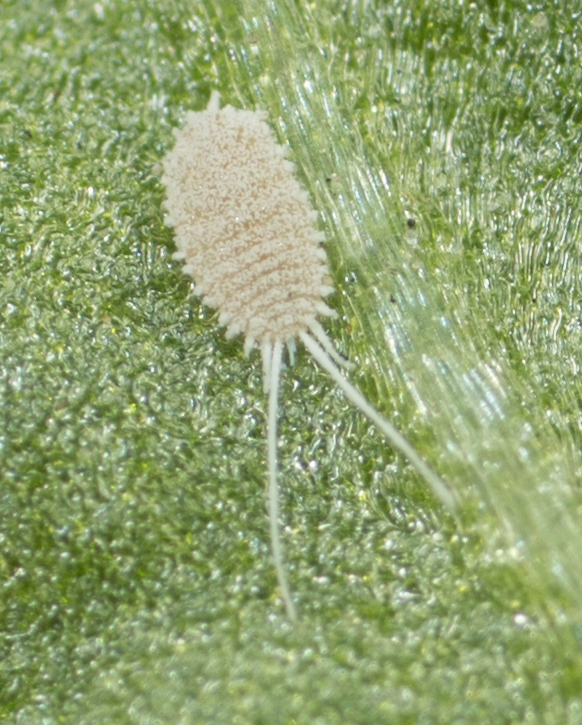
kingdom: Animalia
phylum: Arthropoda
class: Insecta
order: Hemiptera
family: Pseudococcidae
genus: Pseudococcus
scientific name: Pseudococcus longispinus
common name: Long-tailed mealybug
